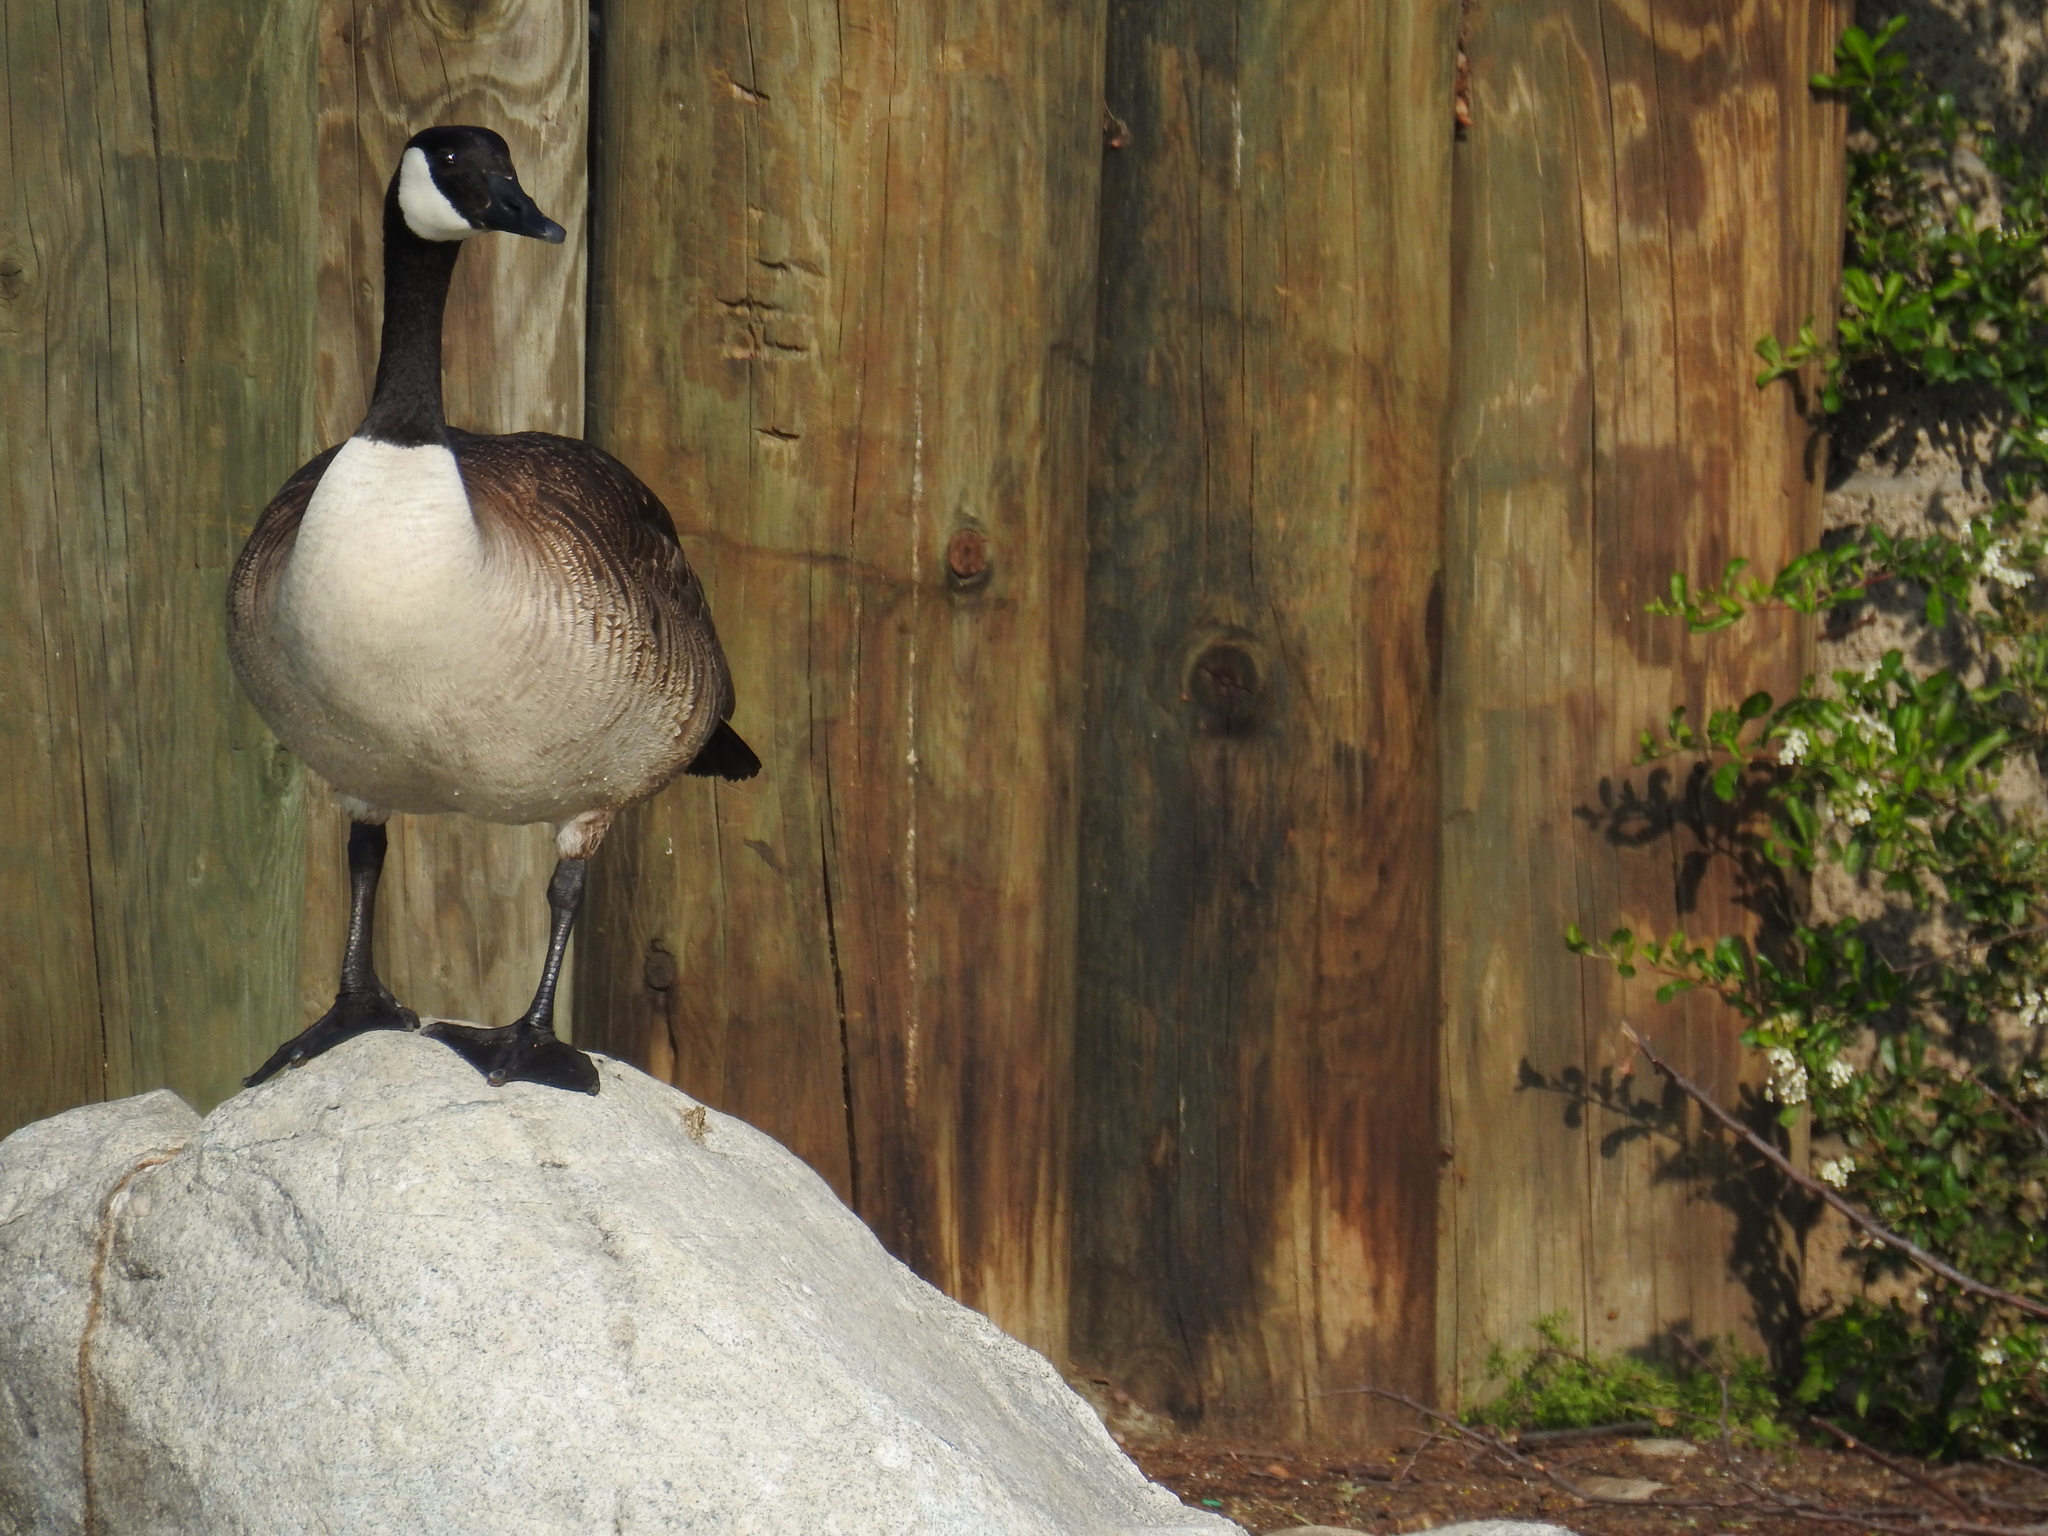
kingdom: Animalia
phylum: Chordata
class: Aves
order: Anseriformes
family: Anatidae
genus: Branta
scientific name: Branta canadensis
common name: Canada goose
